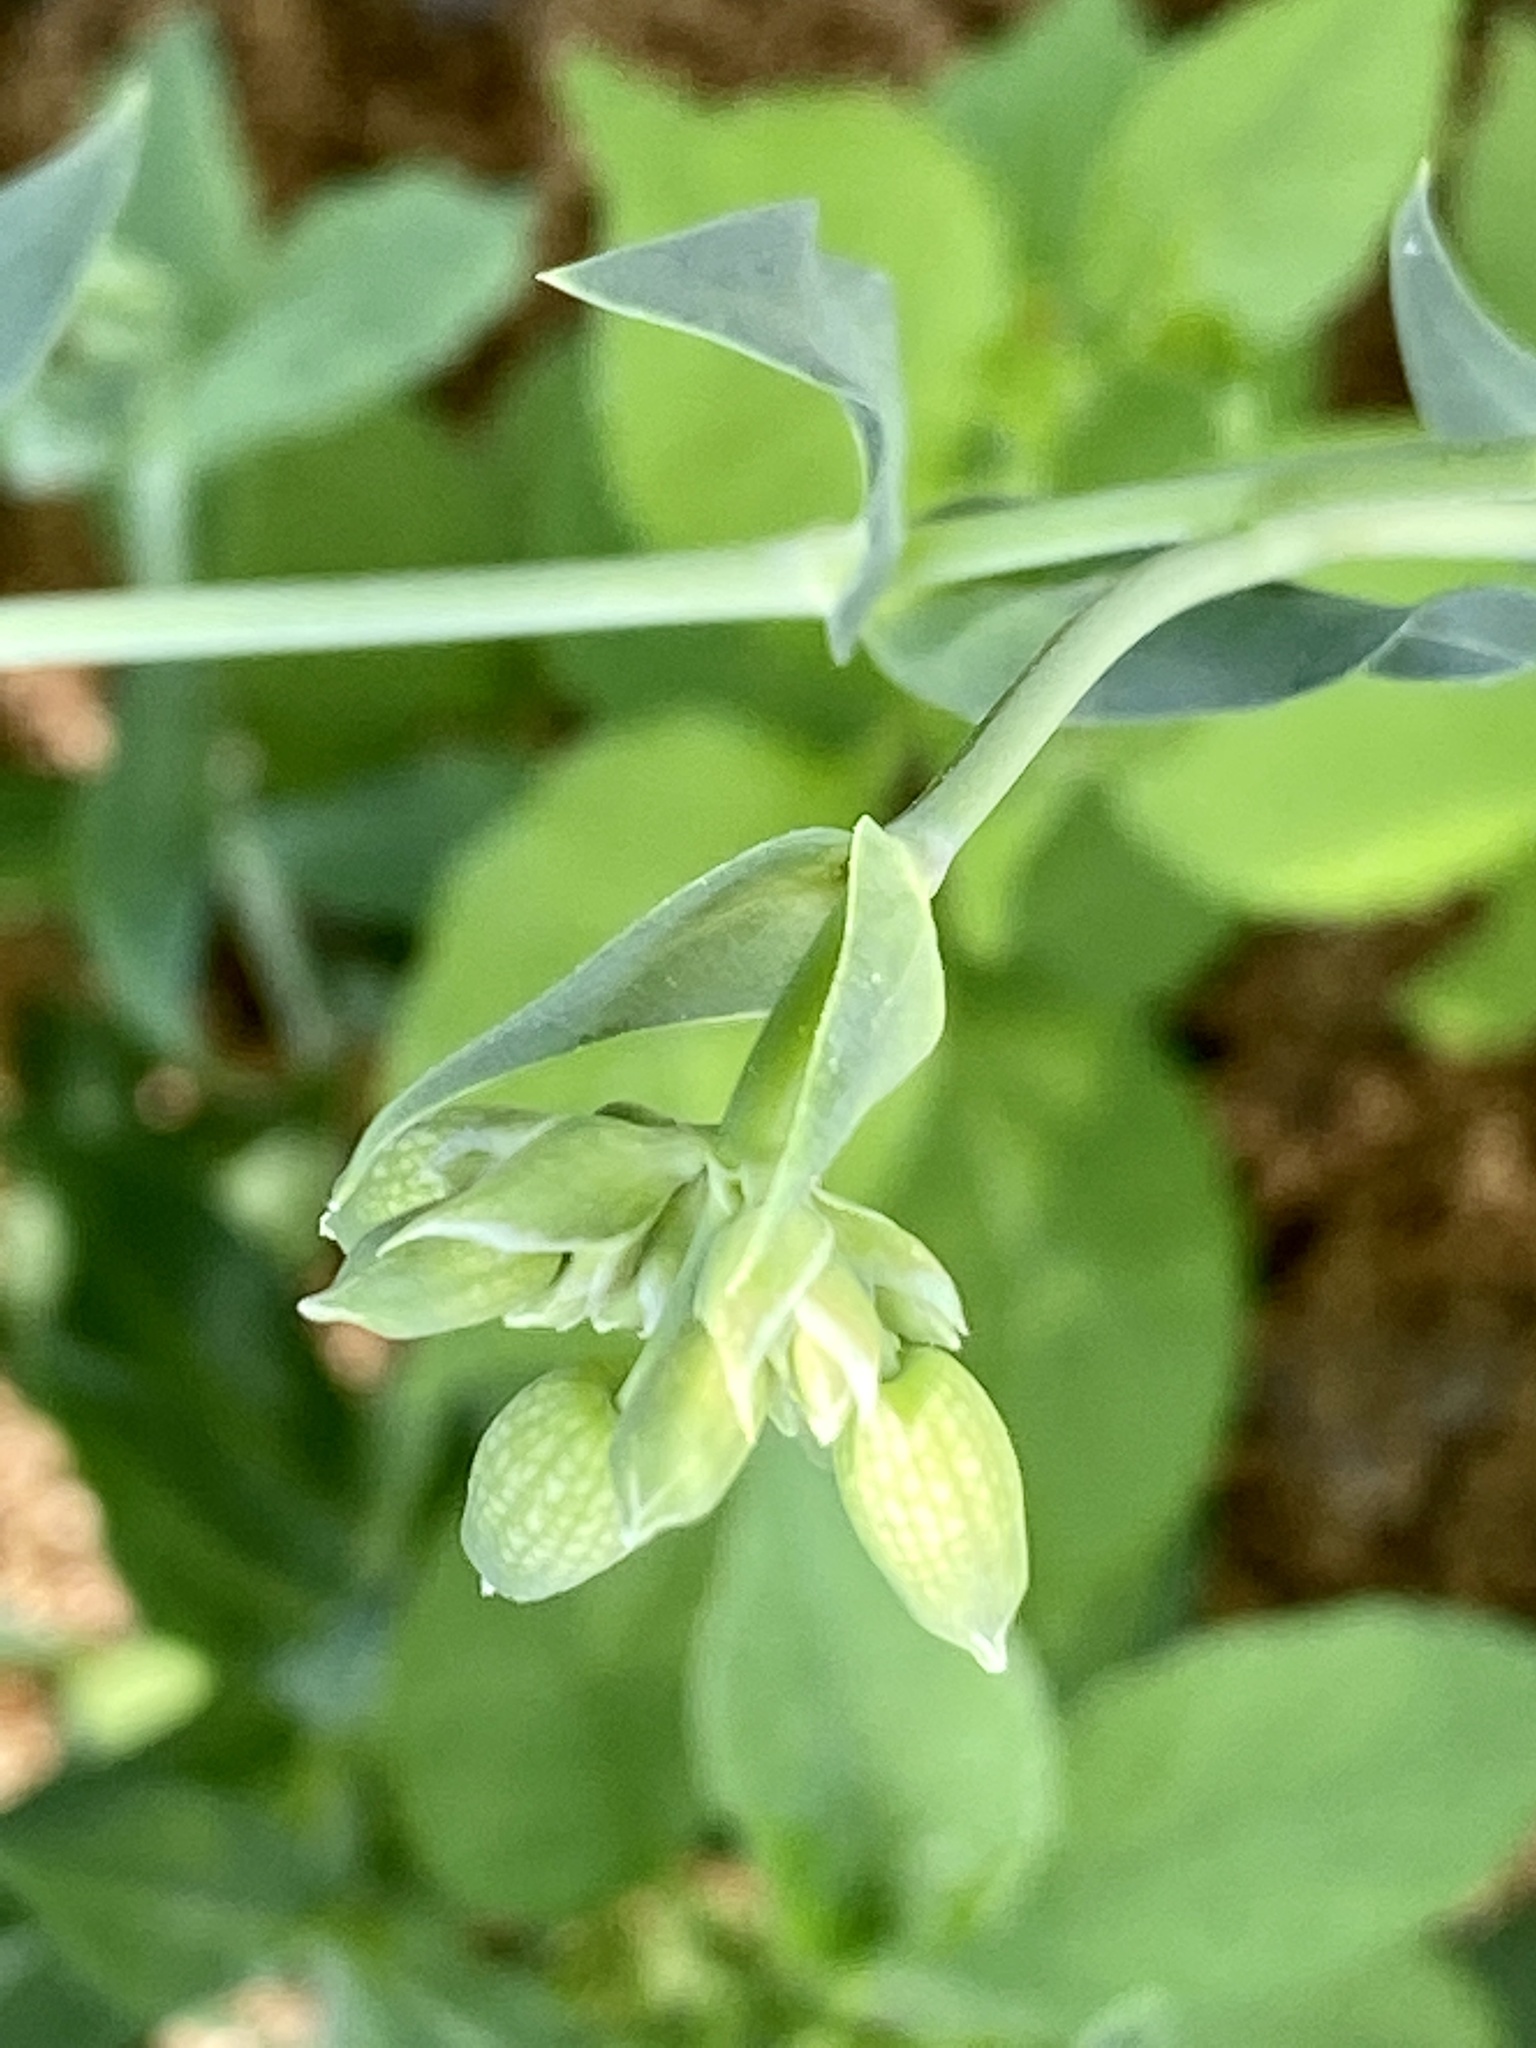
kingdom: Plantae
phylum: Tracheophyta
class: Magnoliopsida
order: Caryophyllales
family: Caryophyllaceae
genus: Silene
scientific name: Silene vulgaris
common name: Bladder campion
